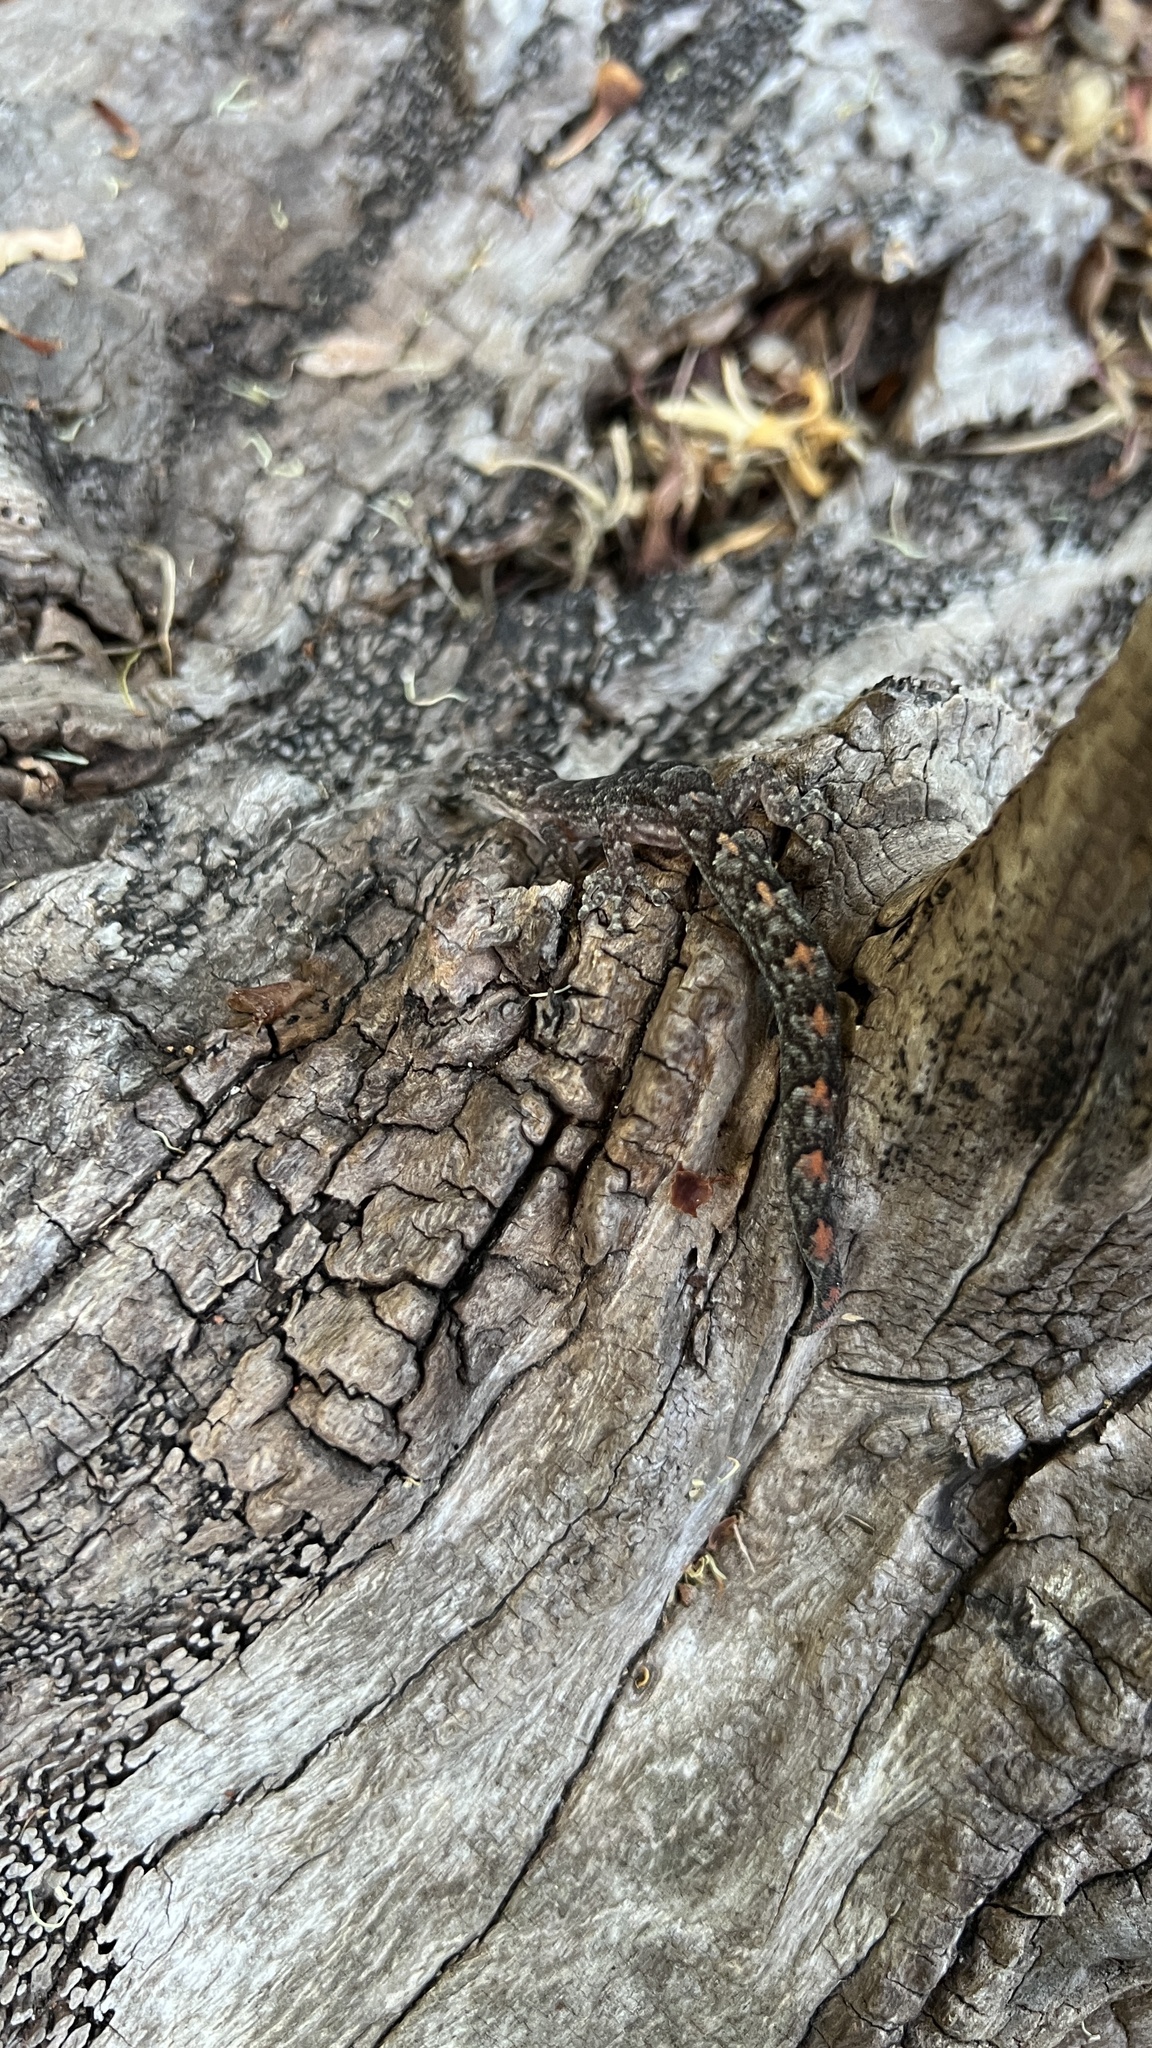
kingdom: Animalia
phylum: Chordata
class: Squamata
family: Gekkonidae
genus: Christinus
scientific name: Christinus marmoratus
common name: Marbled gecko
